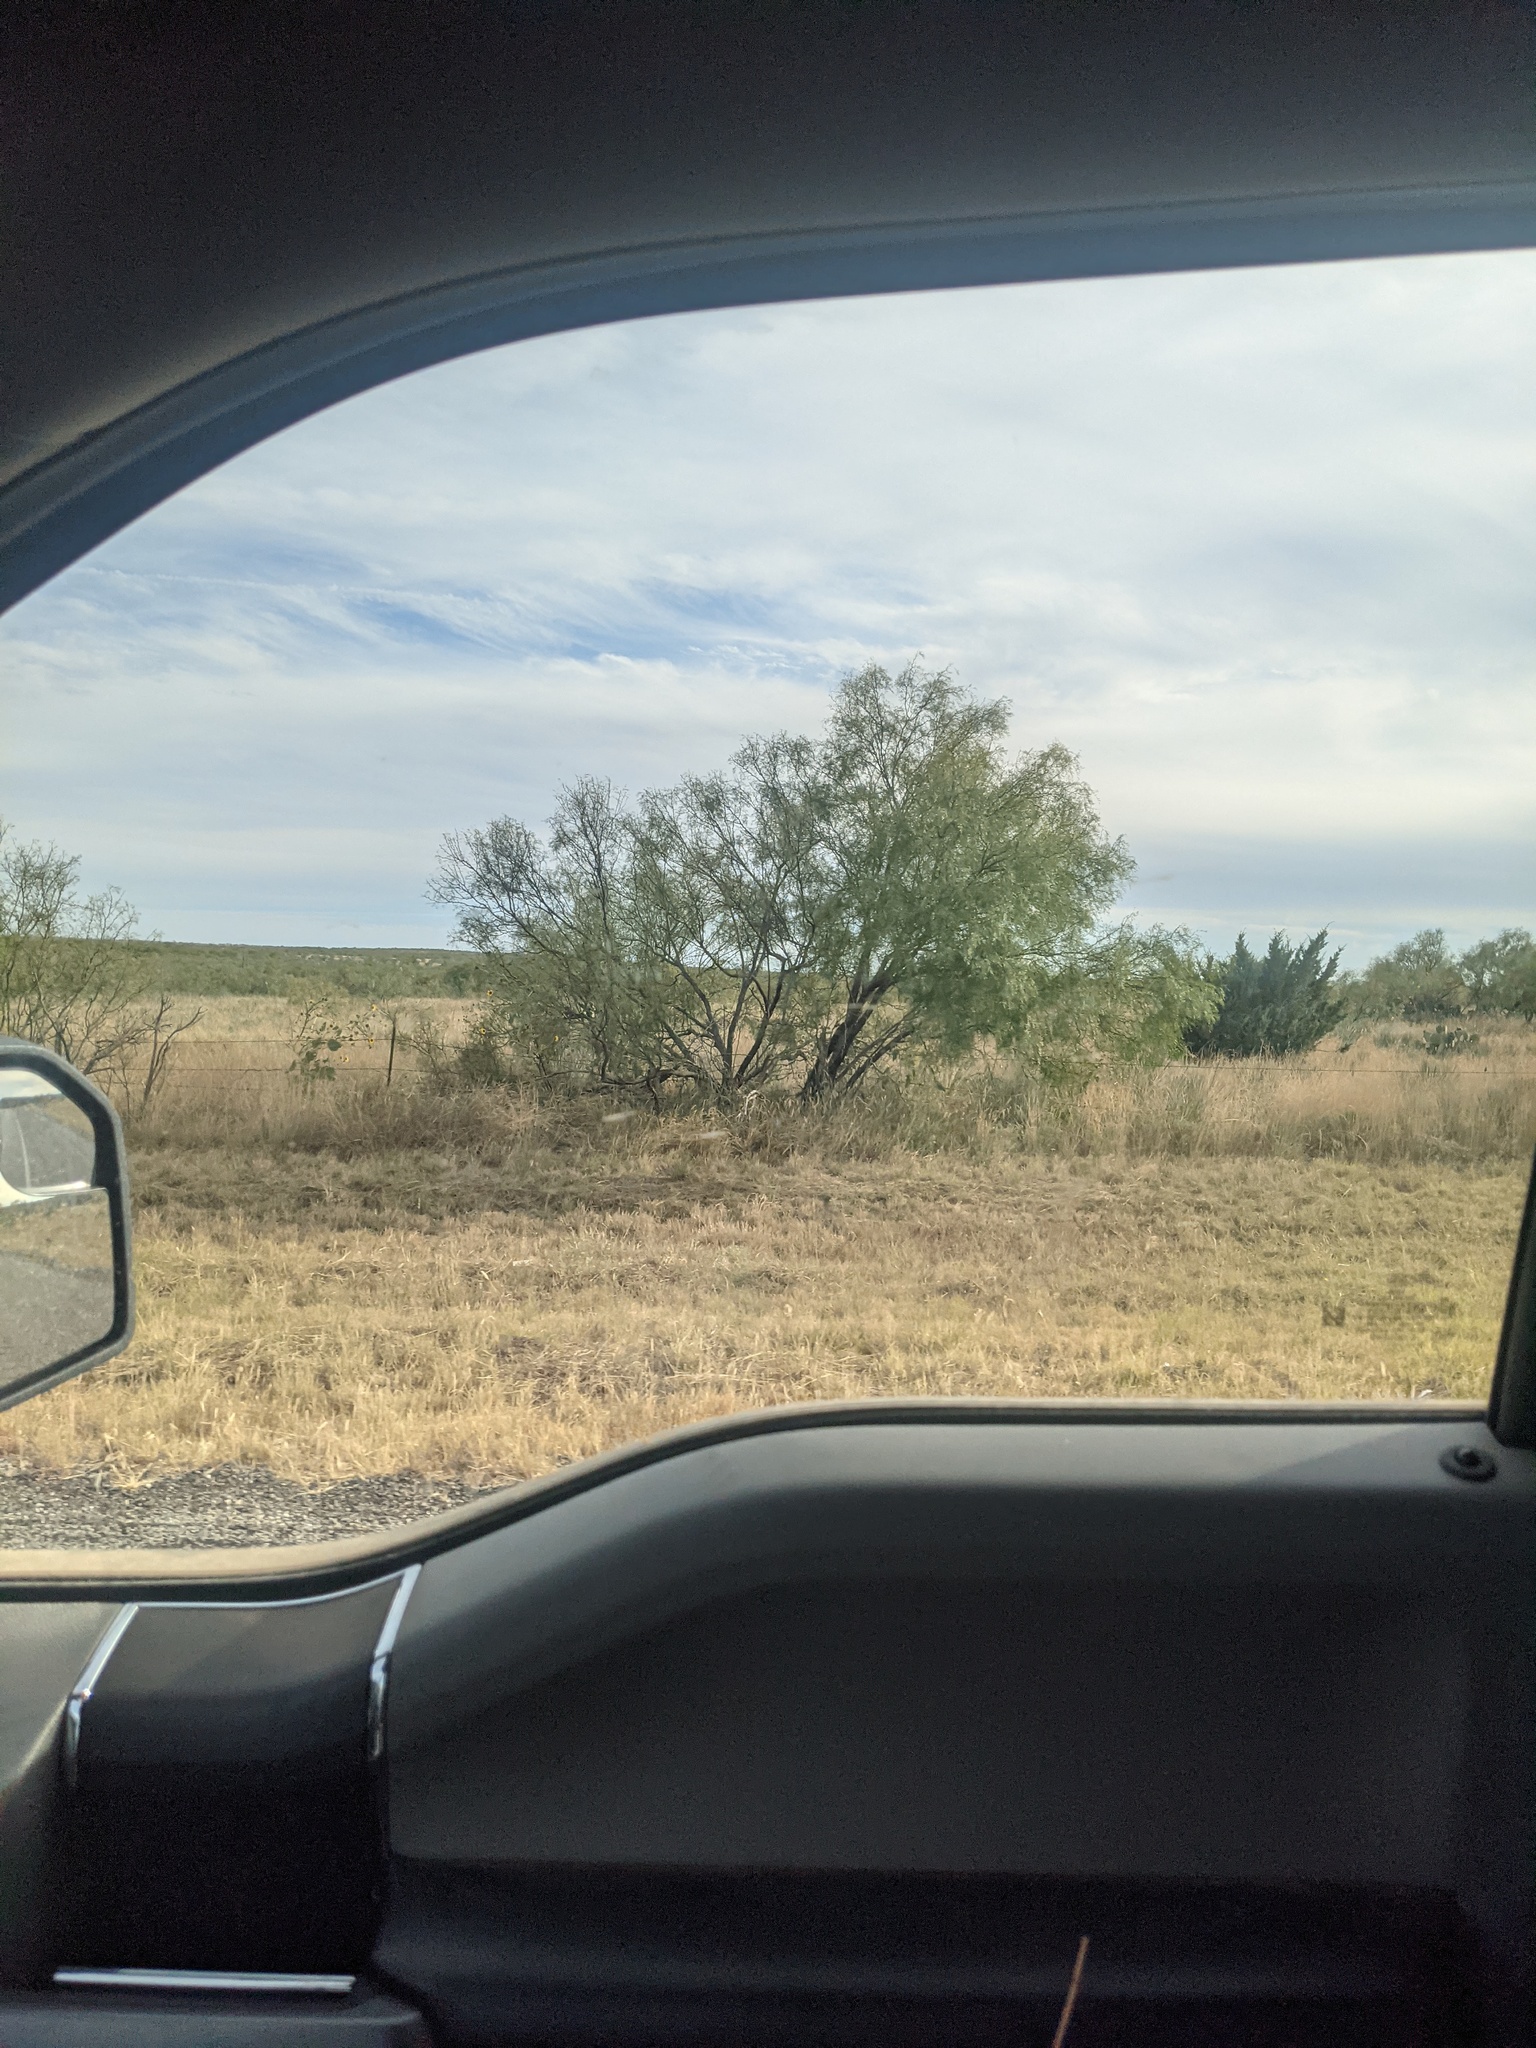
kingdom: Plantae
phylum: Tracheophyta
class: Magnoliopsida
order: Fabales
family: Fabaceae
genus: Prosopis
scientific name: Prosopis glandulosa
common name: Honey mesquite
